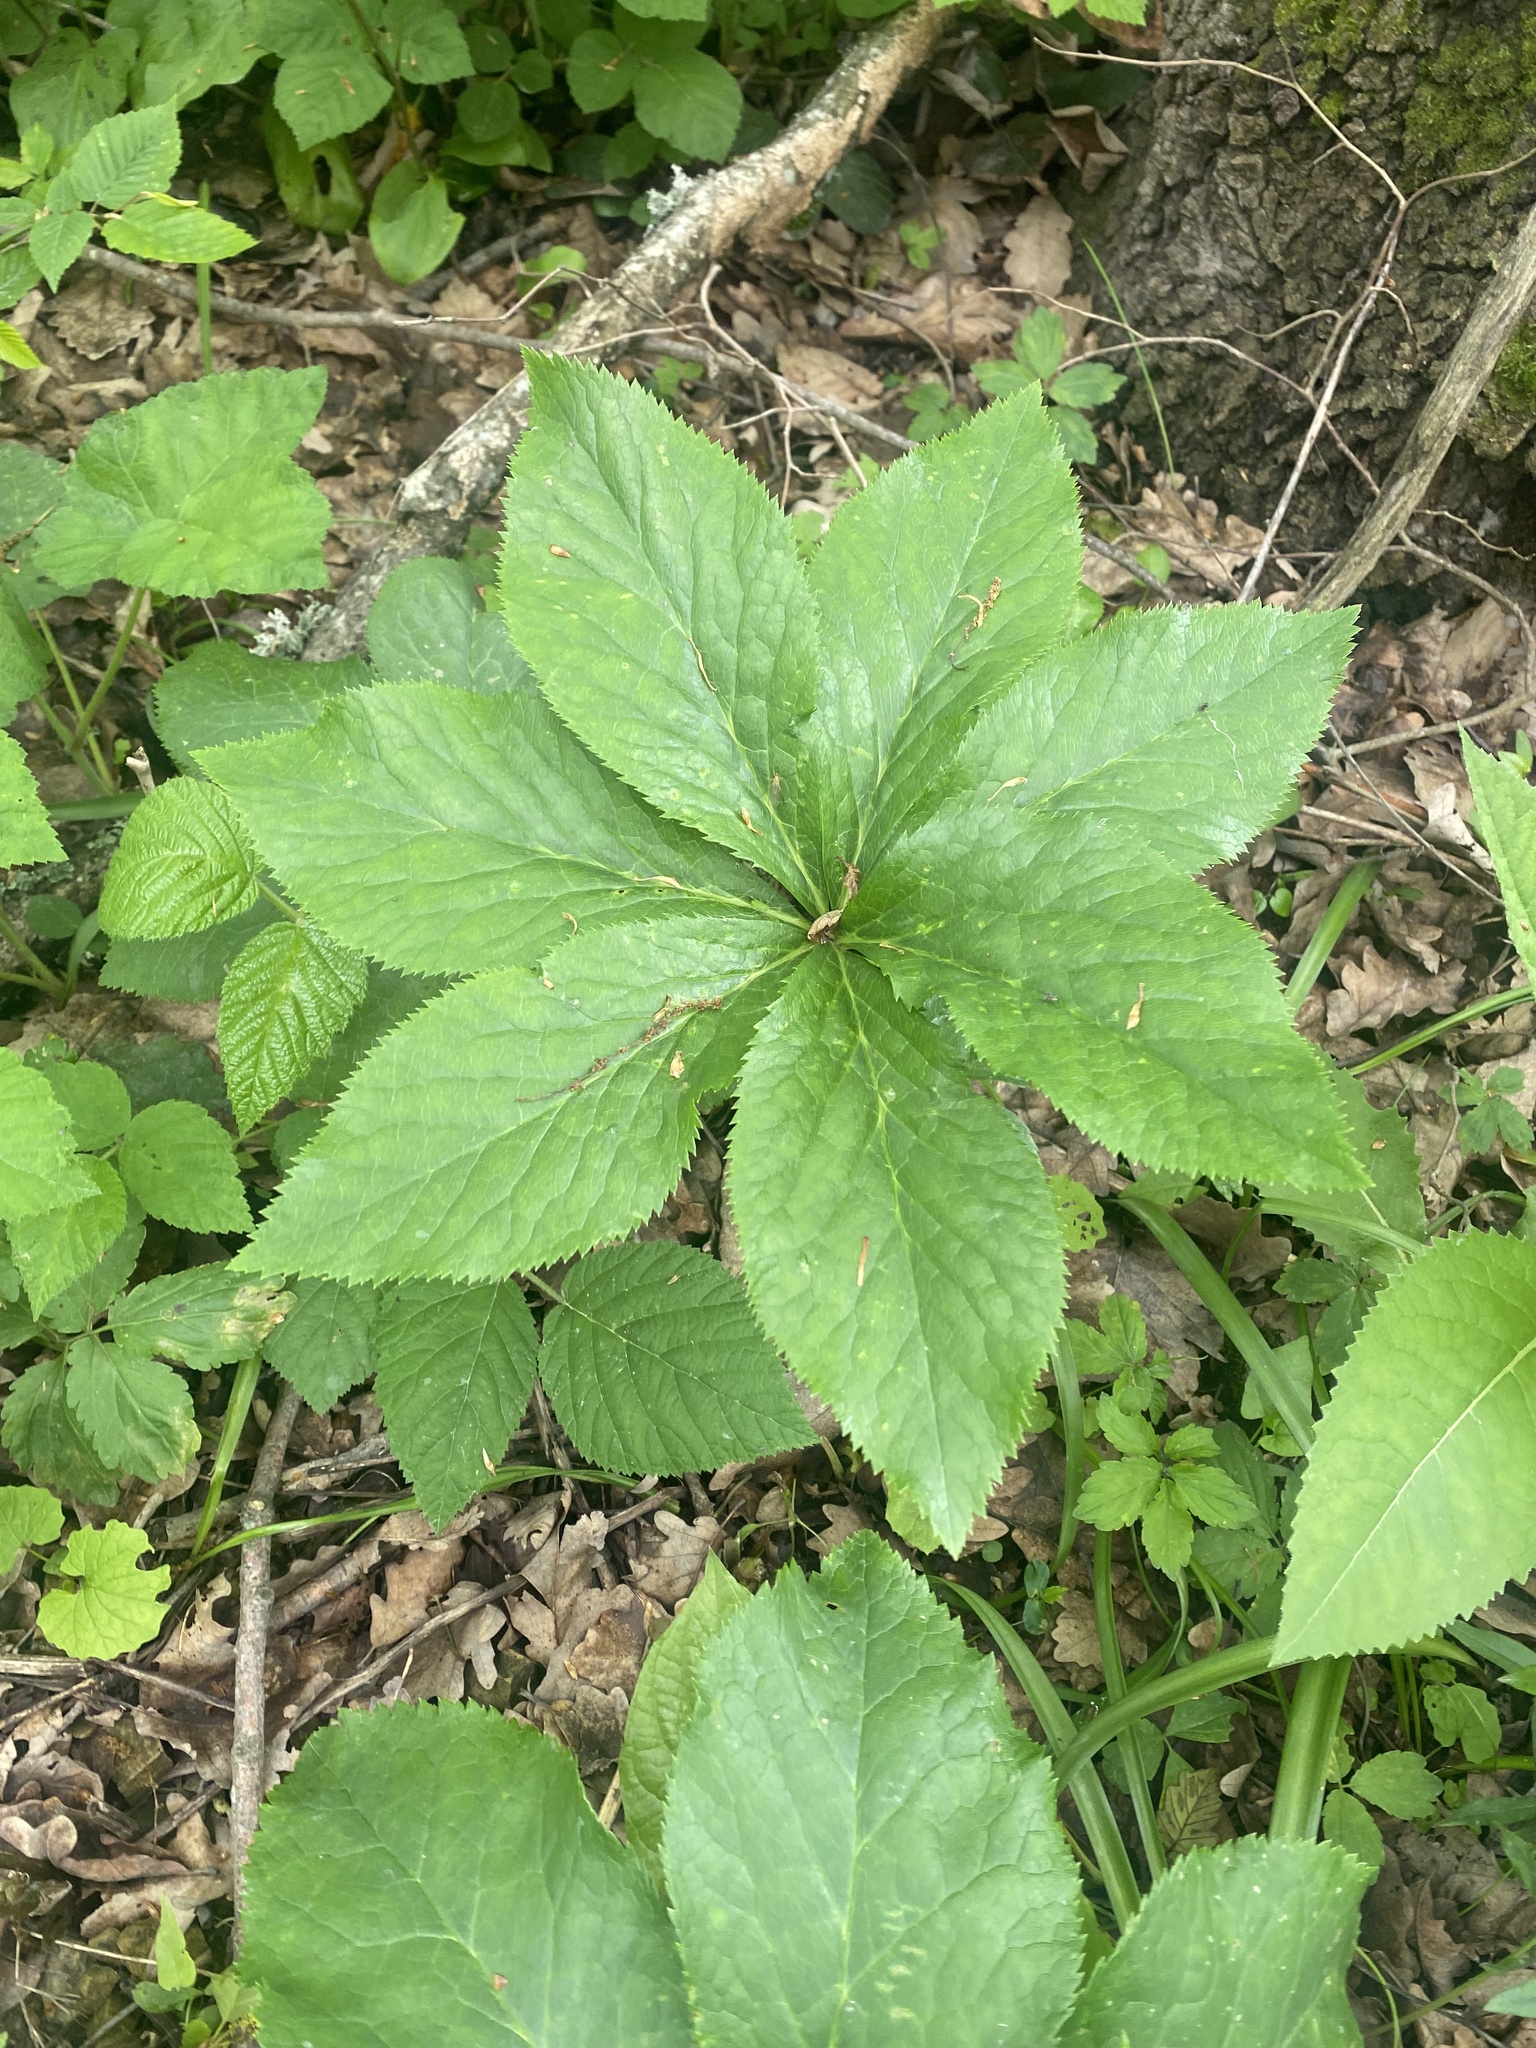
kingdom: Plantae
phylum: Tracheophyta
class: Magnoliopsida
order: Ranunculales
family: Ranunculaceae
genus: Helleborus
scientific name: Helleborus orientalis
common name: Lenten-rose
